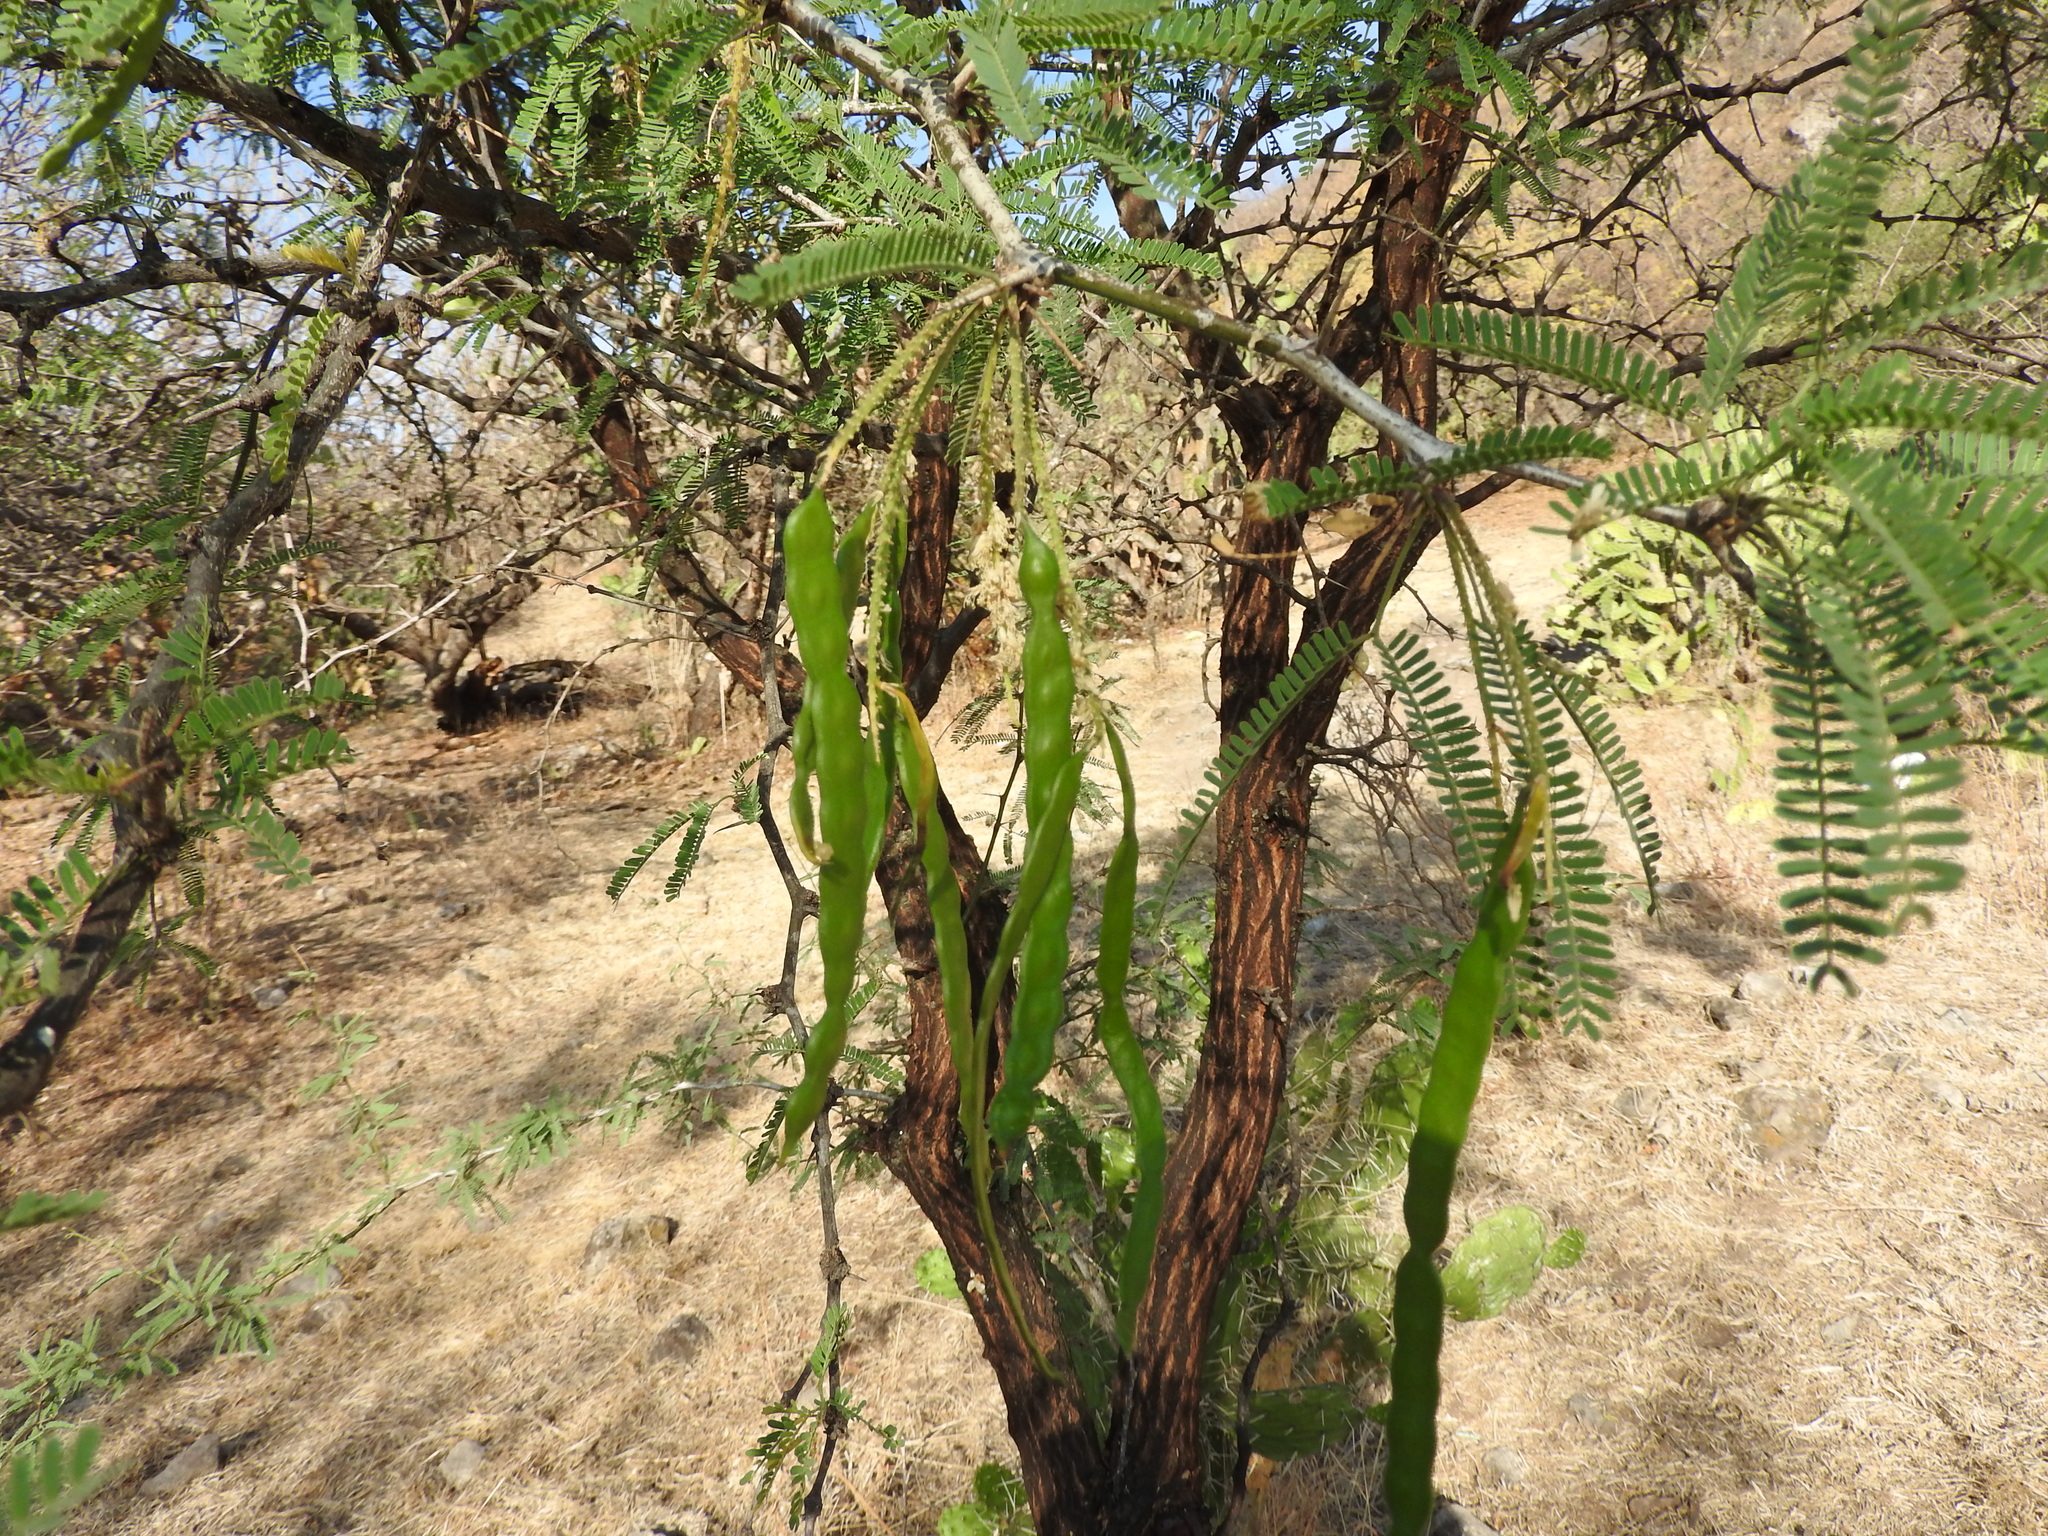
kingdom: Plantae
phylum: Tracheophyta
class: Magnoliopsida
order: Fabales
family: Fabaceae
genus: Prosopis
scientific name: Prosopis laevigata
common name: Smooth mesquite
